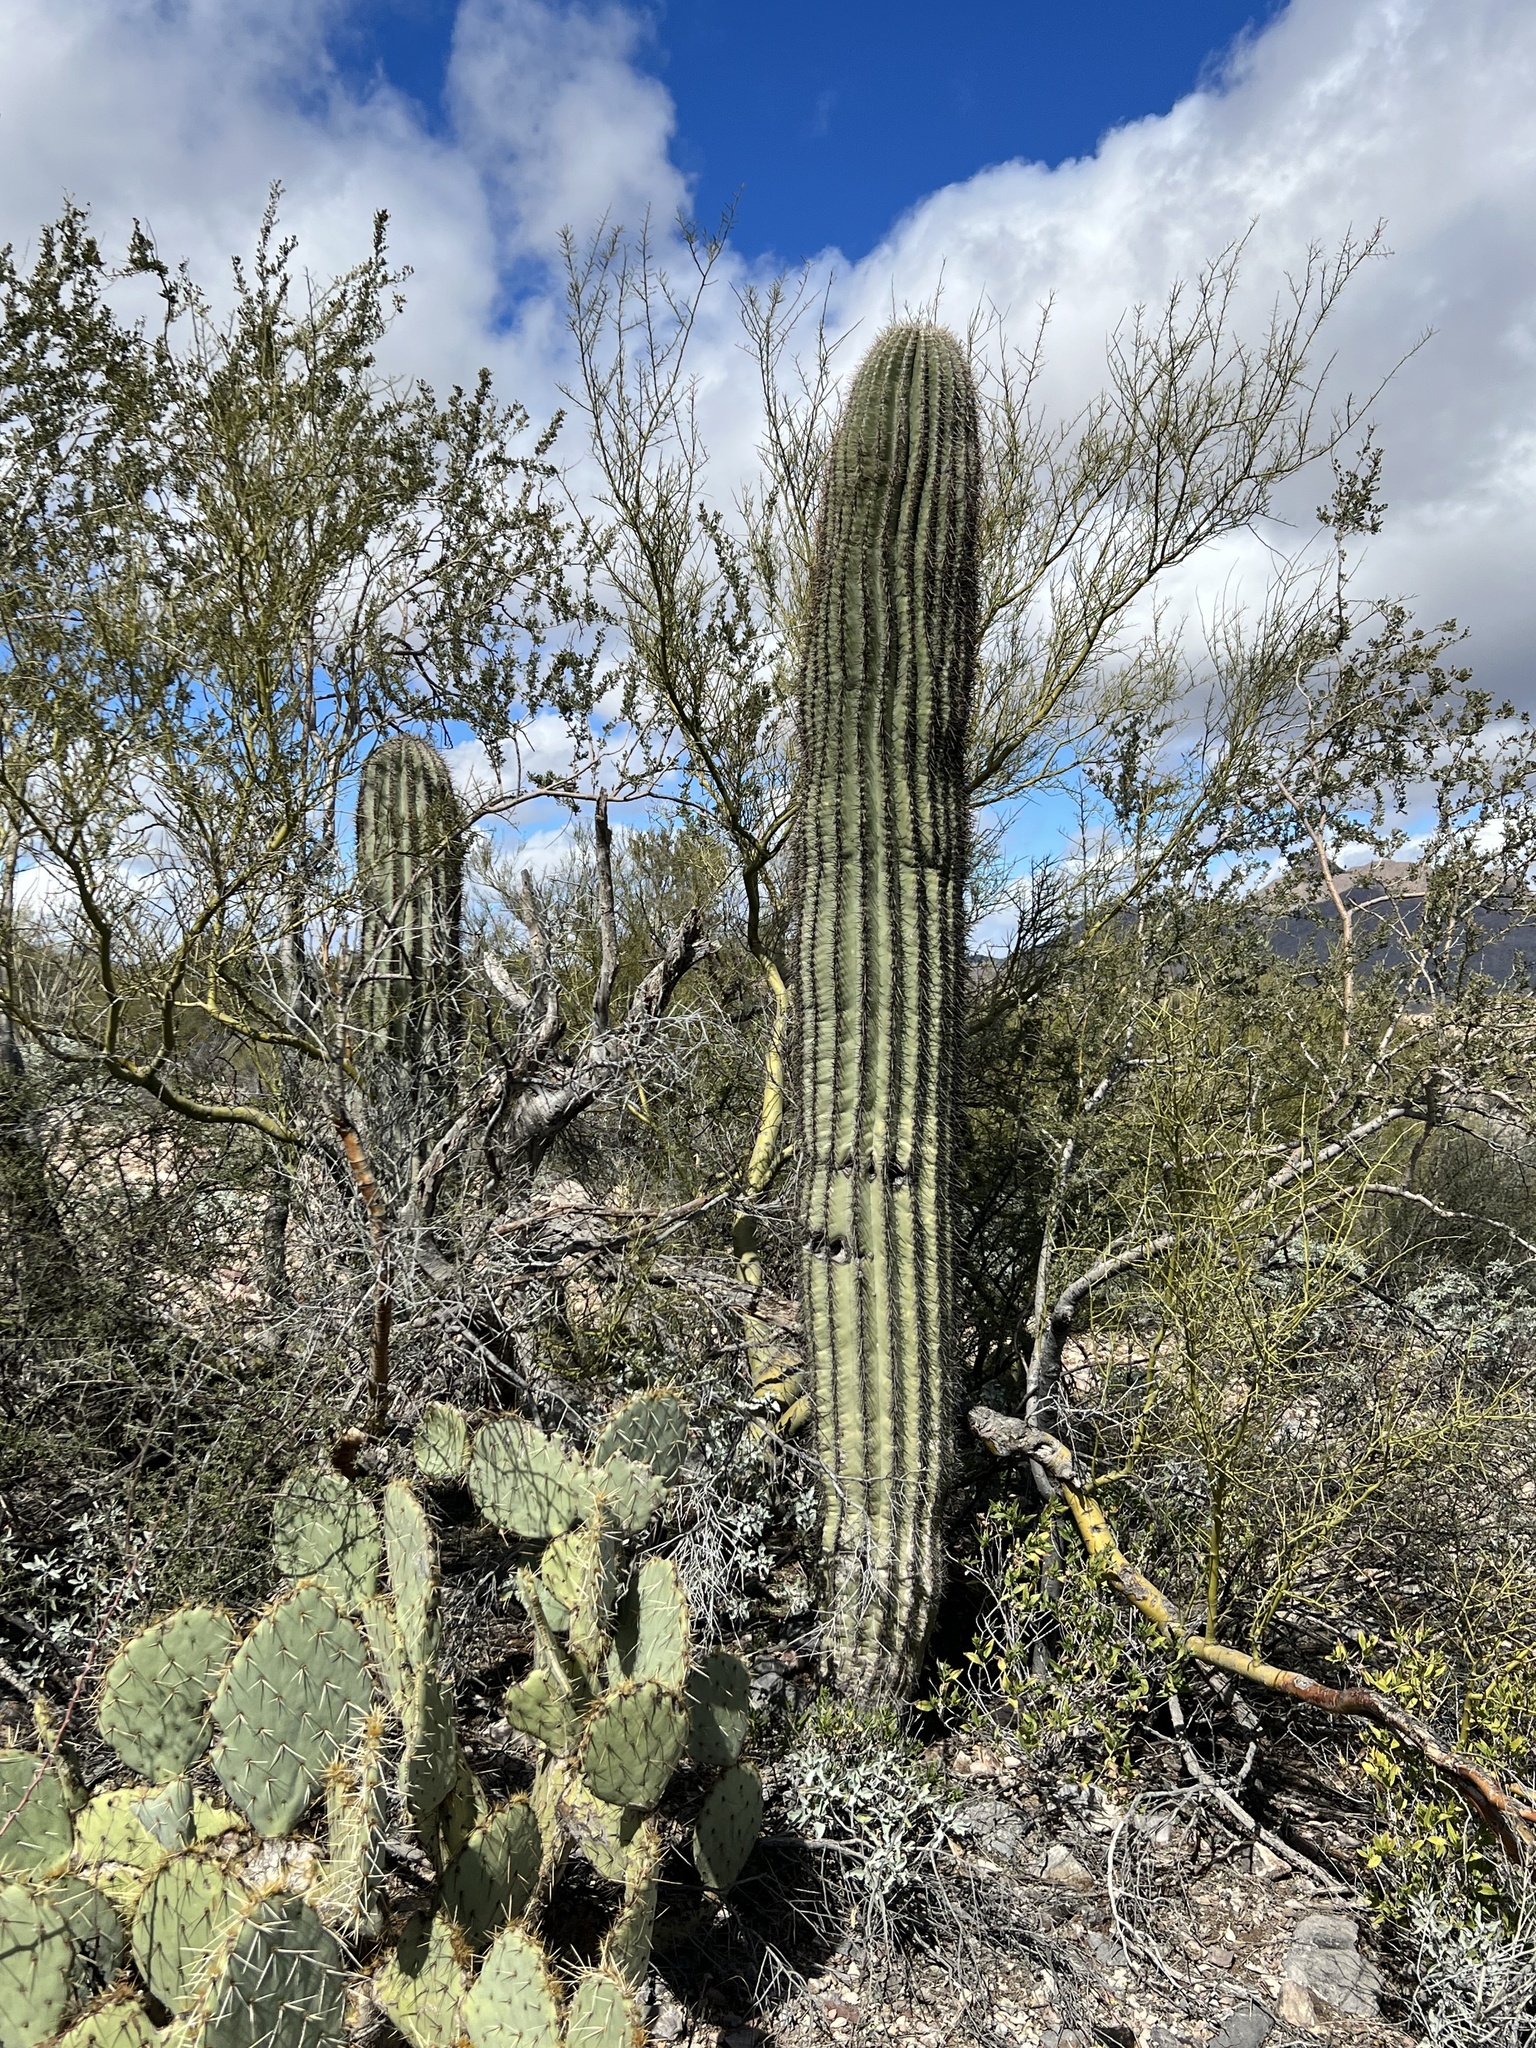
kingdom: Plantae
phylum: Tracheophyta
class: Magnoliopsida
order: Caryophyllales
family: Cactaceae
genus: Carnegiea
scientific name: Carnegiea gigantea
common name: Saguaro
